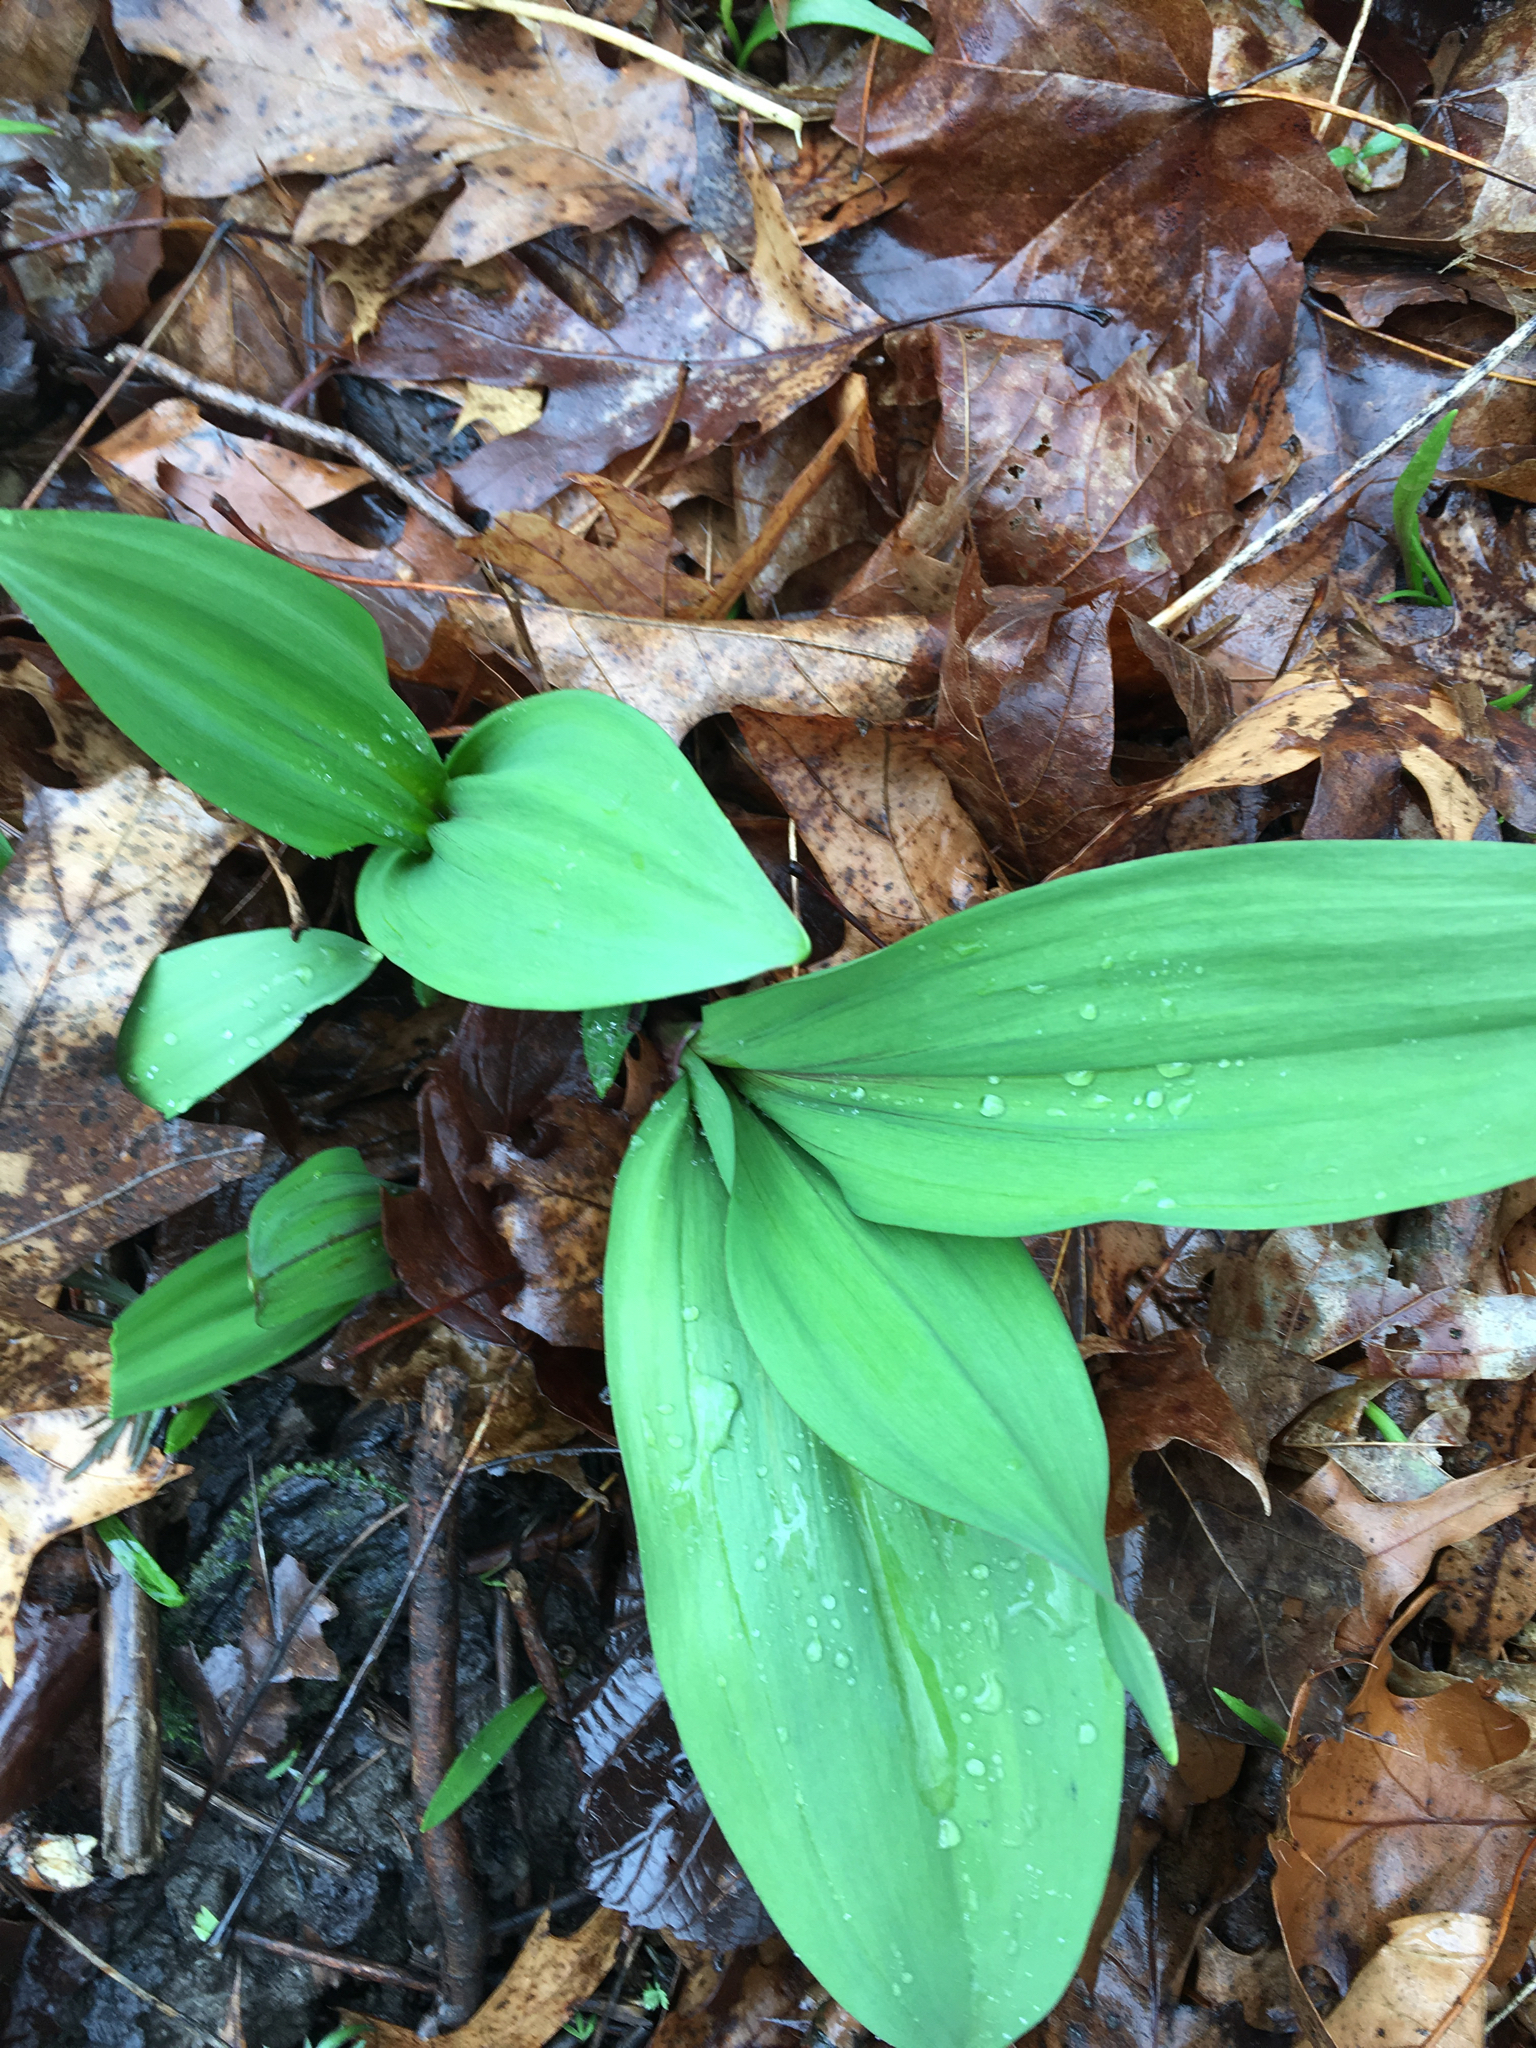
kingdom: Plantae
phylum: Tracheophyta
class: Liliopsida
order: Asparagales
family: Amaryllidaceae
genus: Allium
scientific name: Allium tricoccum
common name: Ramp
